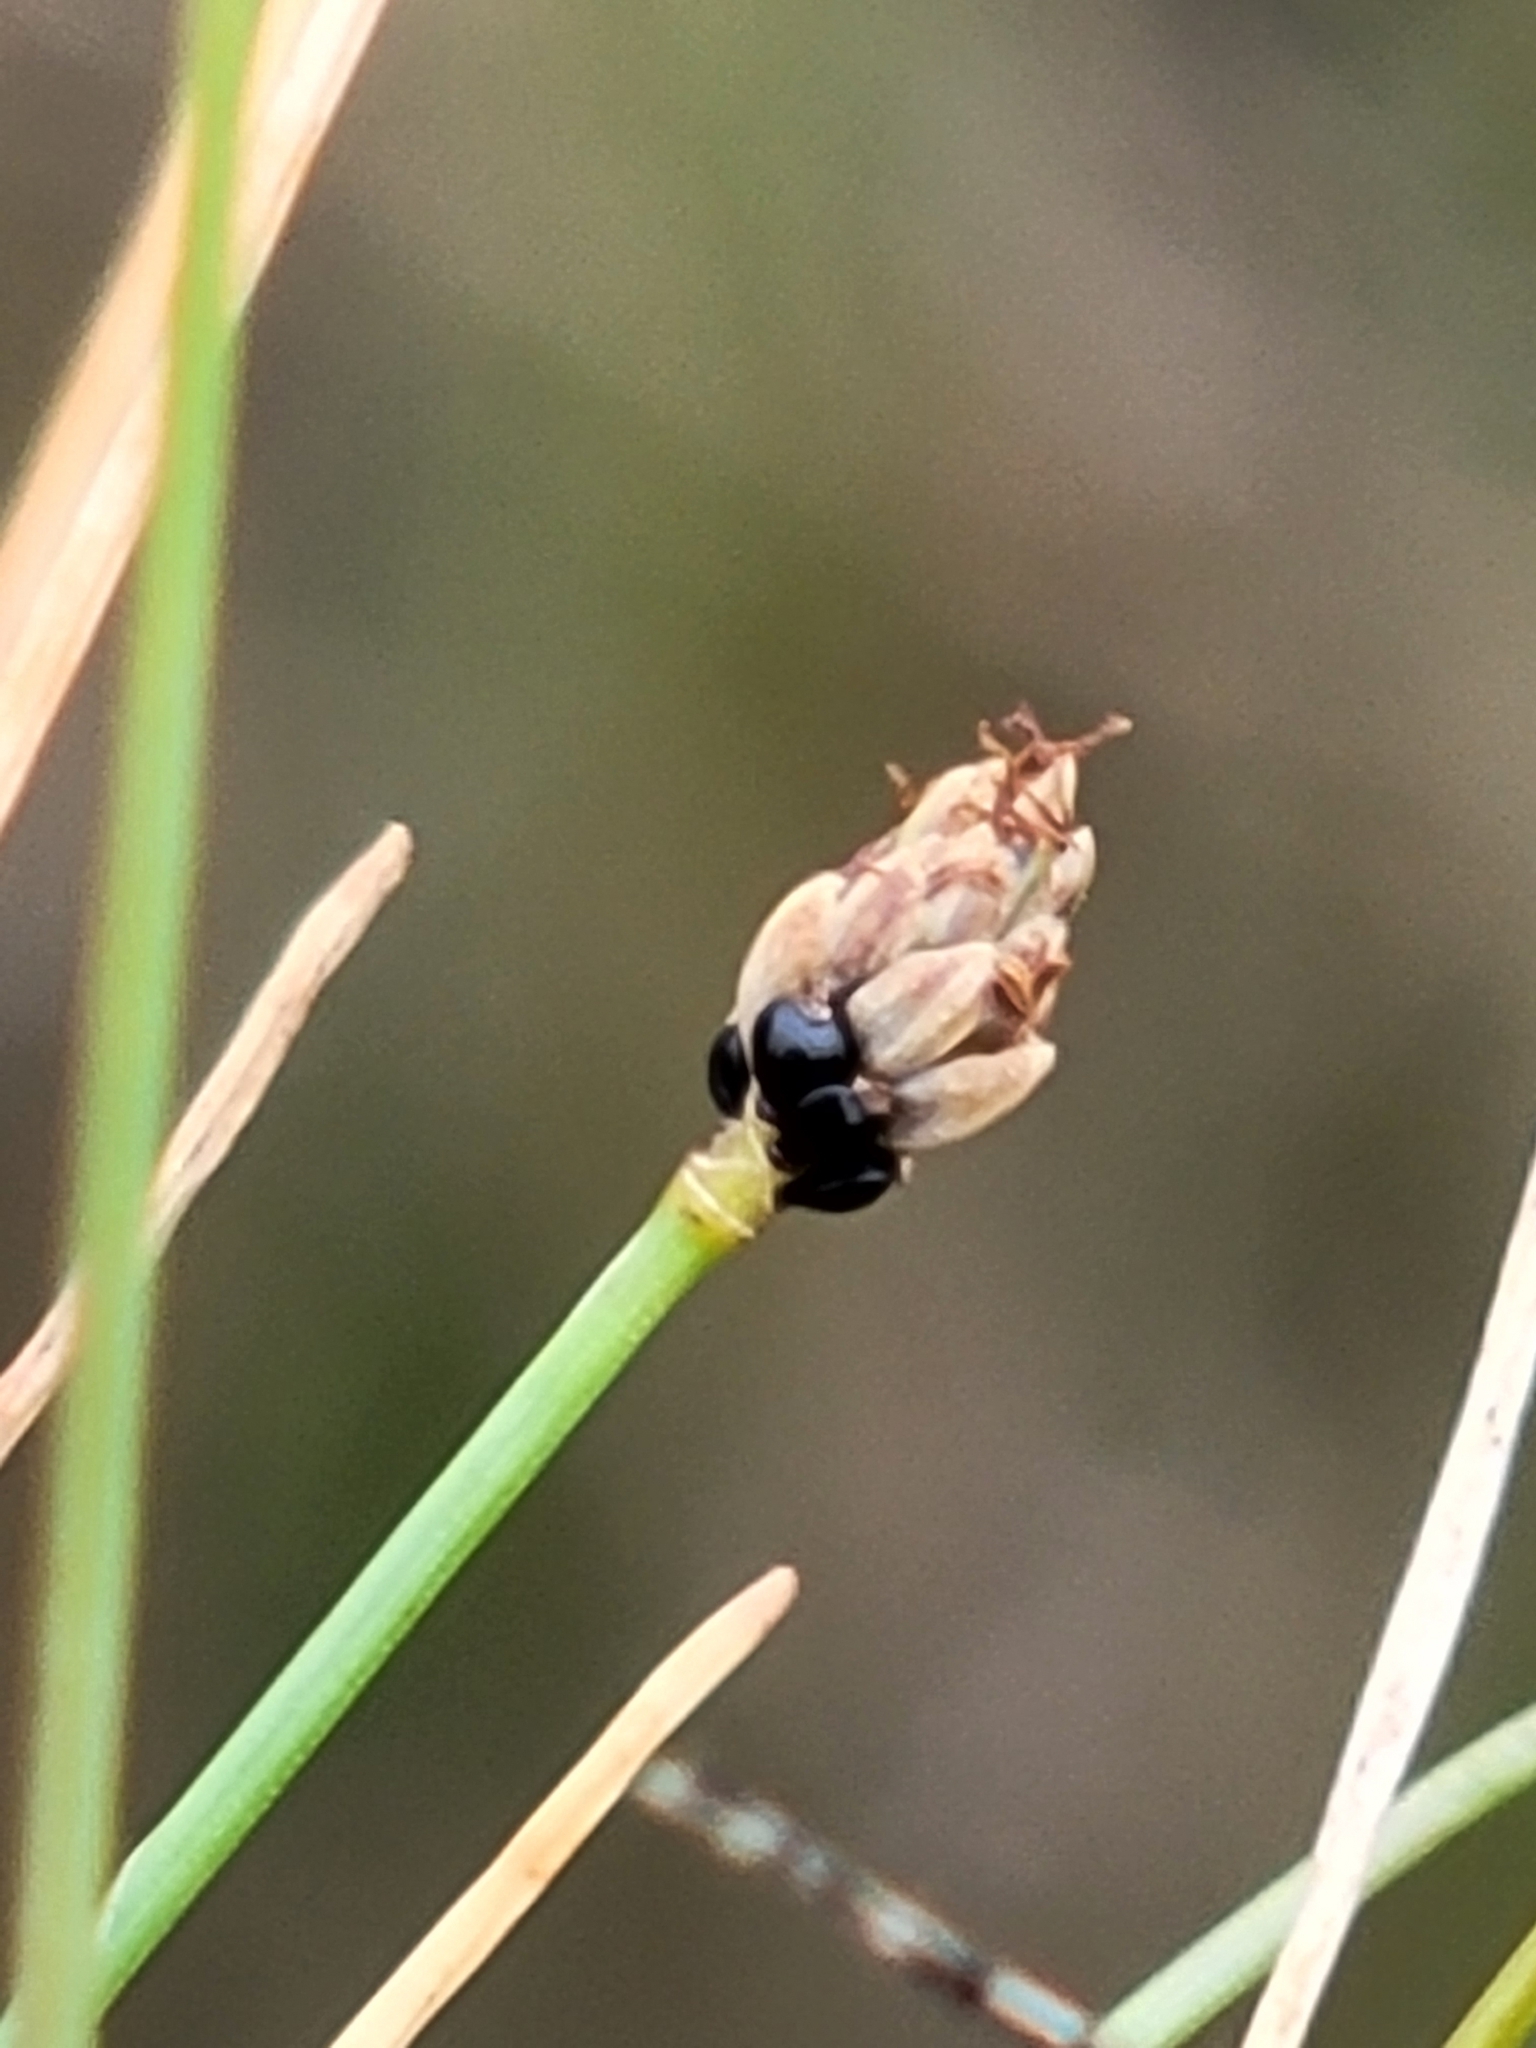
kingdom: Plantae
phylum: Tracheophyta
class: Liliopsida
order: Poales
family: Cyperaceae
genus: Eleocharis
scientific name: Eleocharis atropurpurea
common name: Purple spikerush
